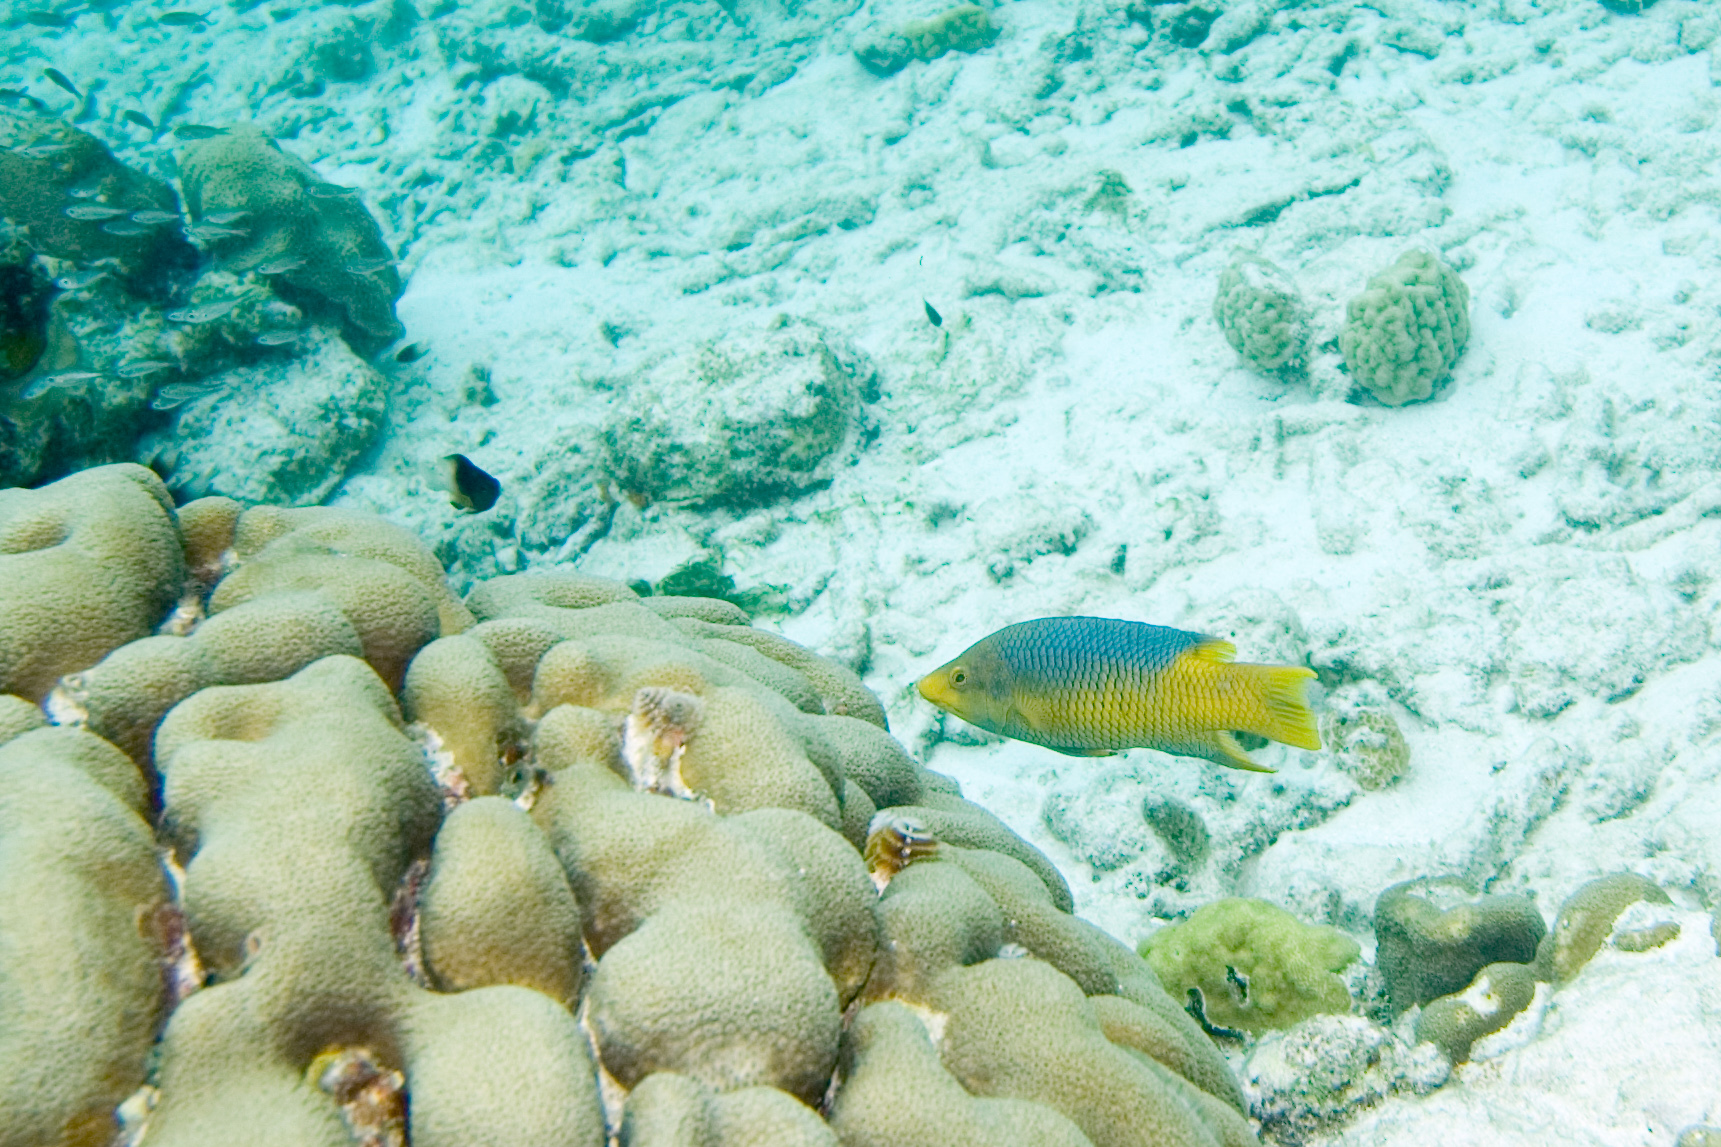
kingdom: Animalia
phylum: Chordata
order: Perciformes
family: Labridae
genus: Bodianus
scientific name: Bodianus rufus
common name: Spanish hogfish
